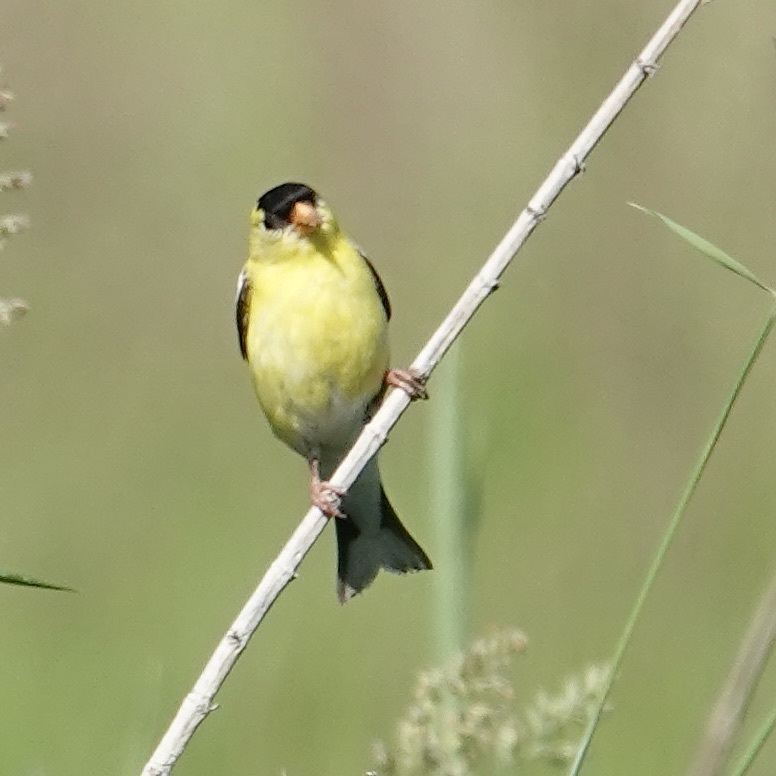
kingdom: Animalia
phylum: Chordata
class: Aves
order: Passeriformes
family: Fringillidae
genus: Spinus
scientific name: Spinus tristis
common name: American goldfinch
